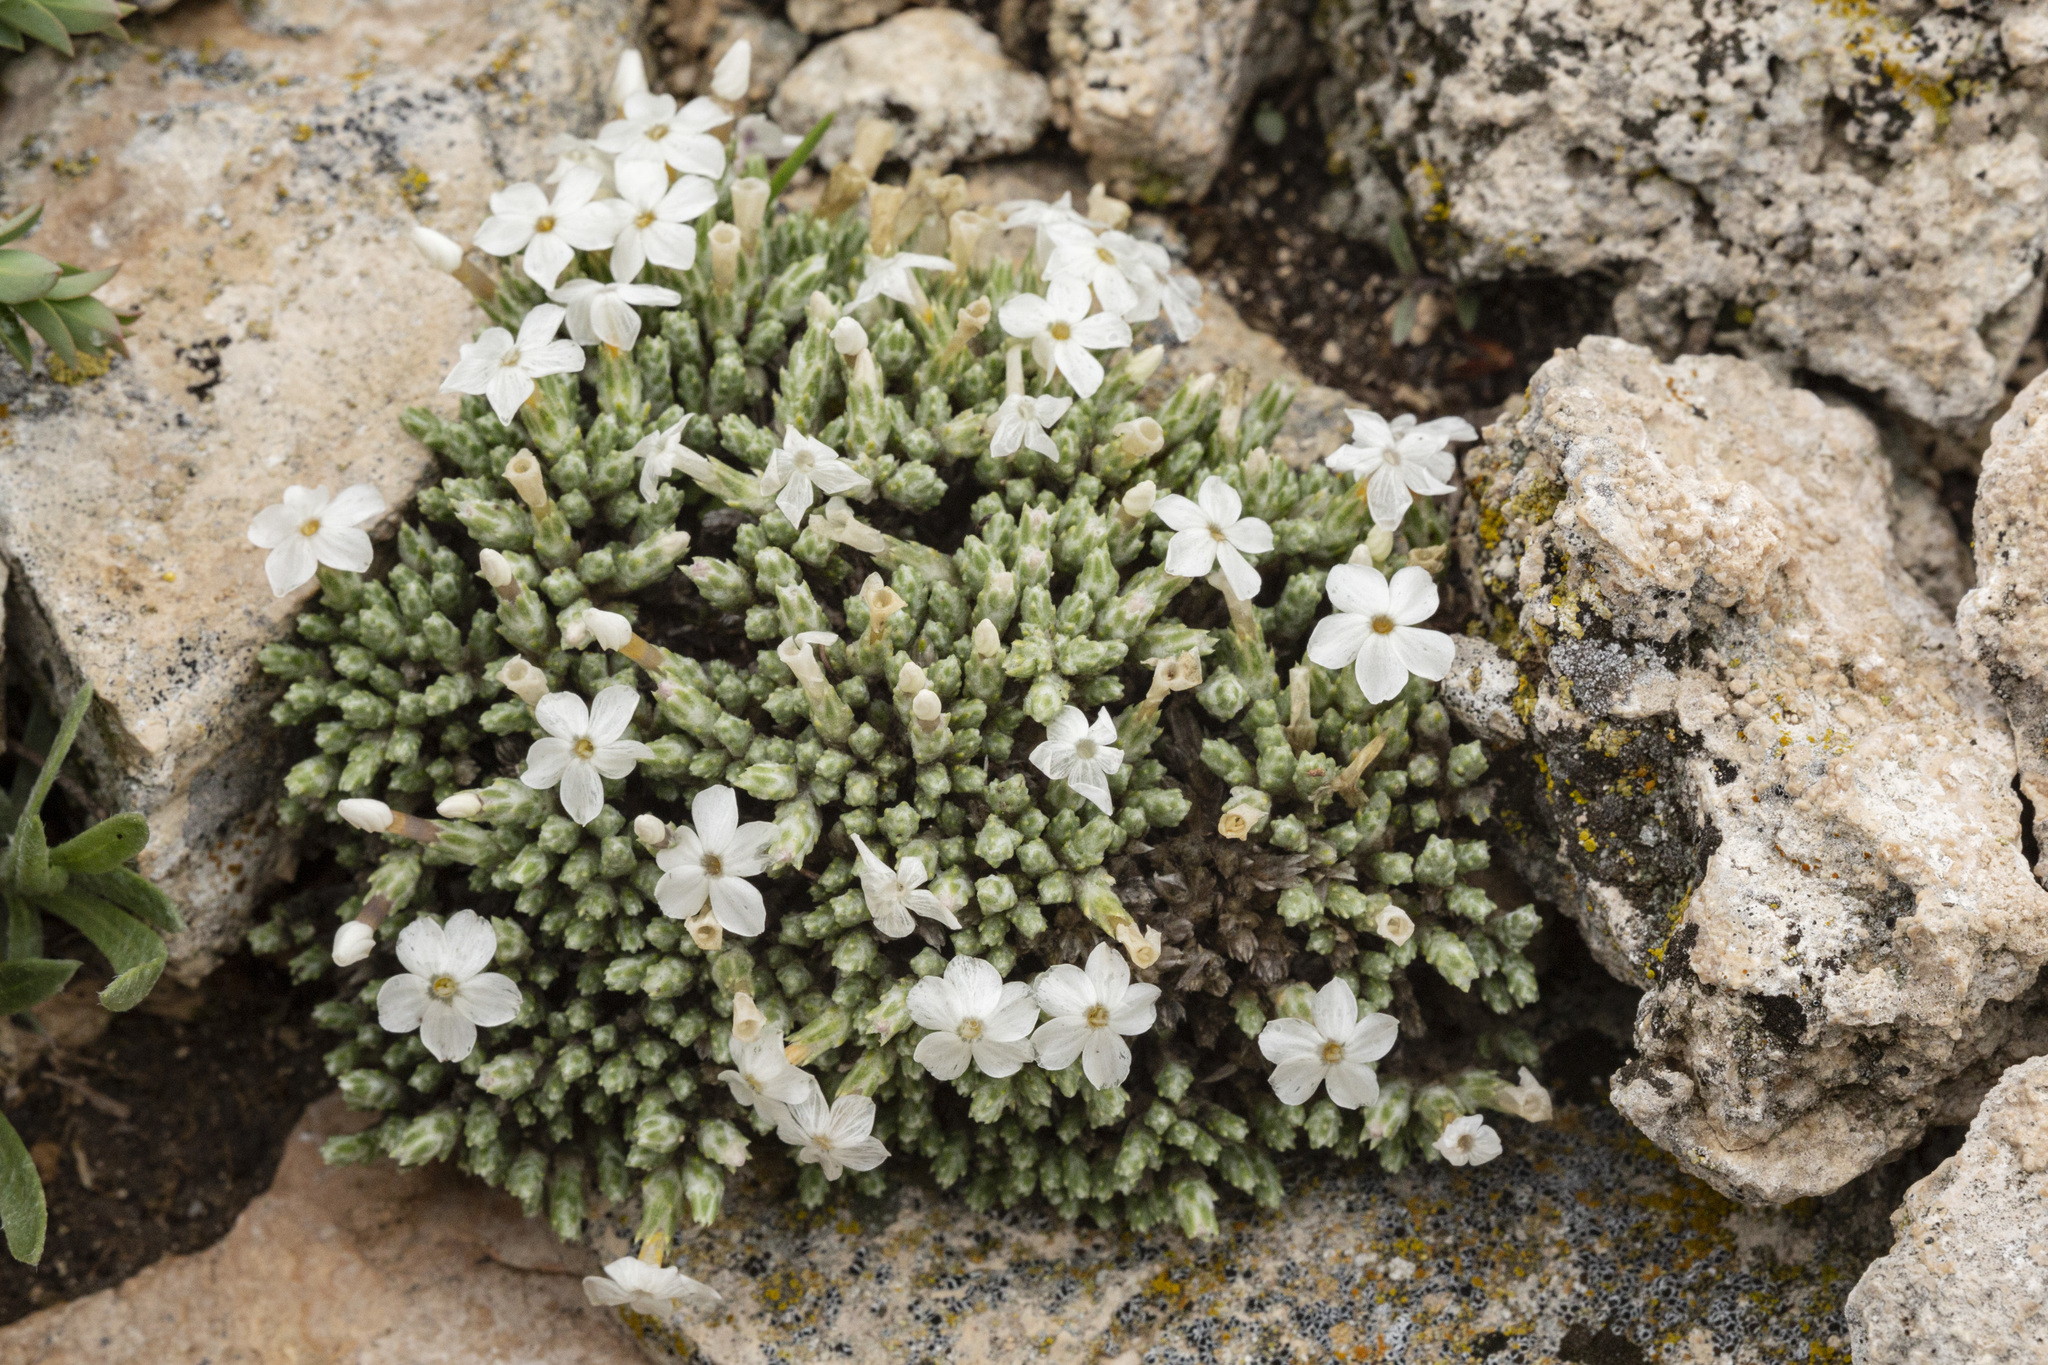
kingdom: Plantae
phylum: Tracheophyta
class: Magnoliopsida
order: Ericales
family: Polemoniaceae
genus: Phlox
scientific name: Phlox hoodii
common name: Moss phlox
